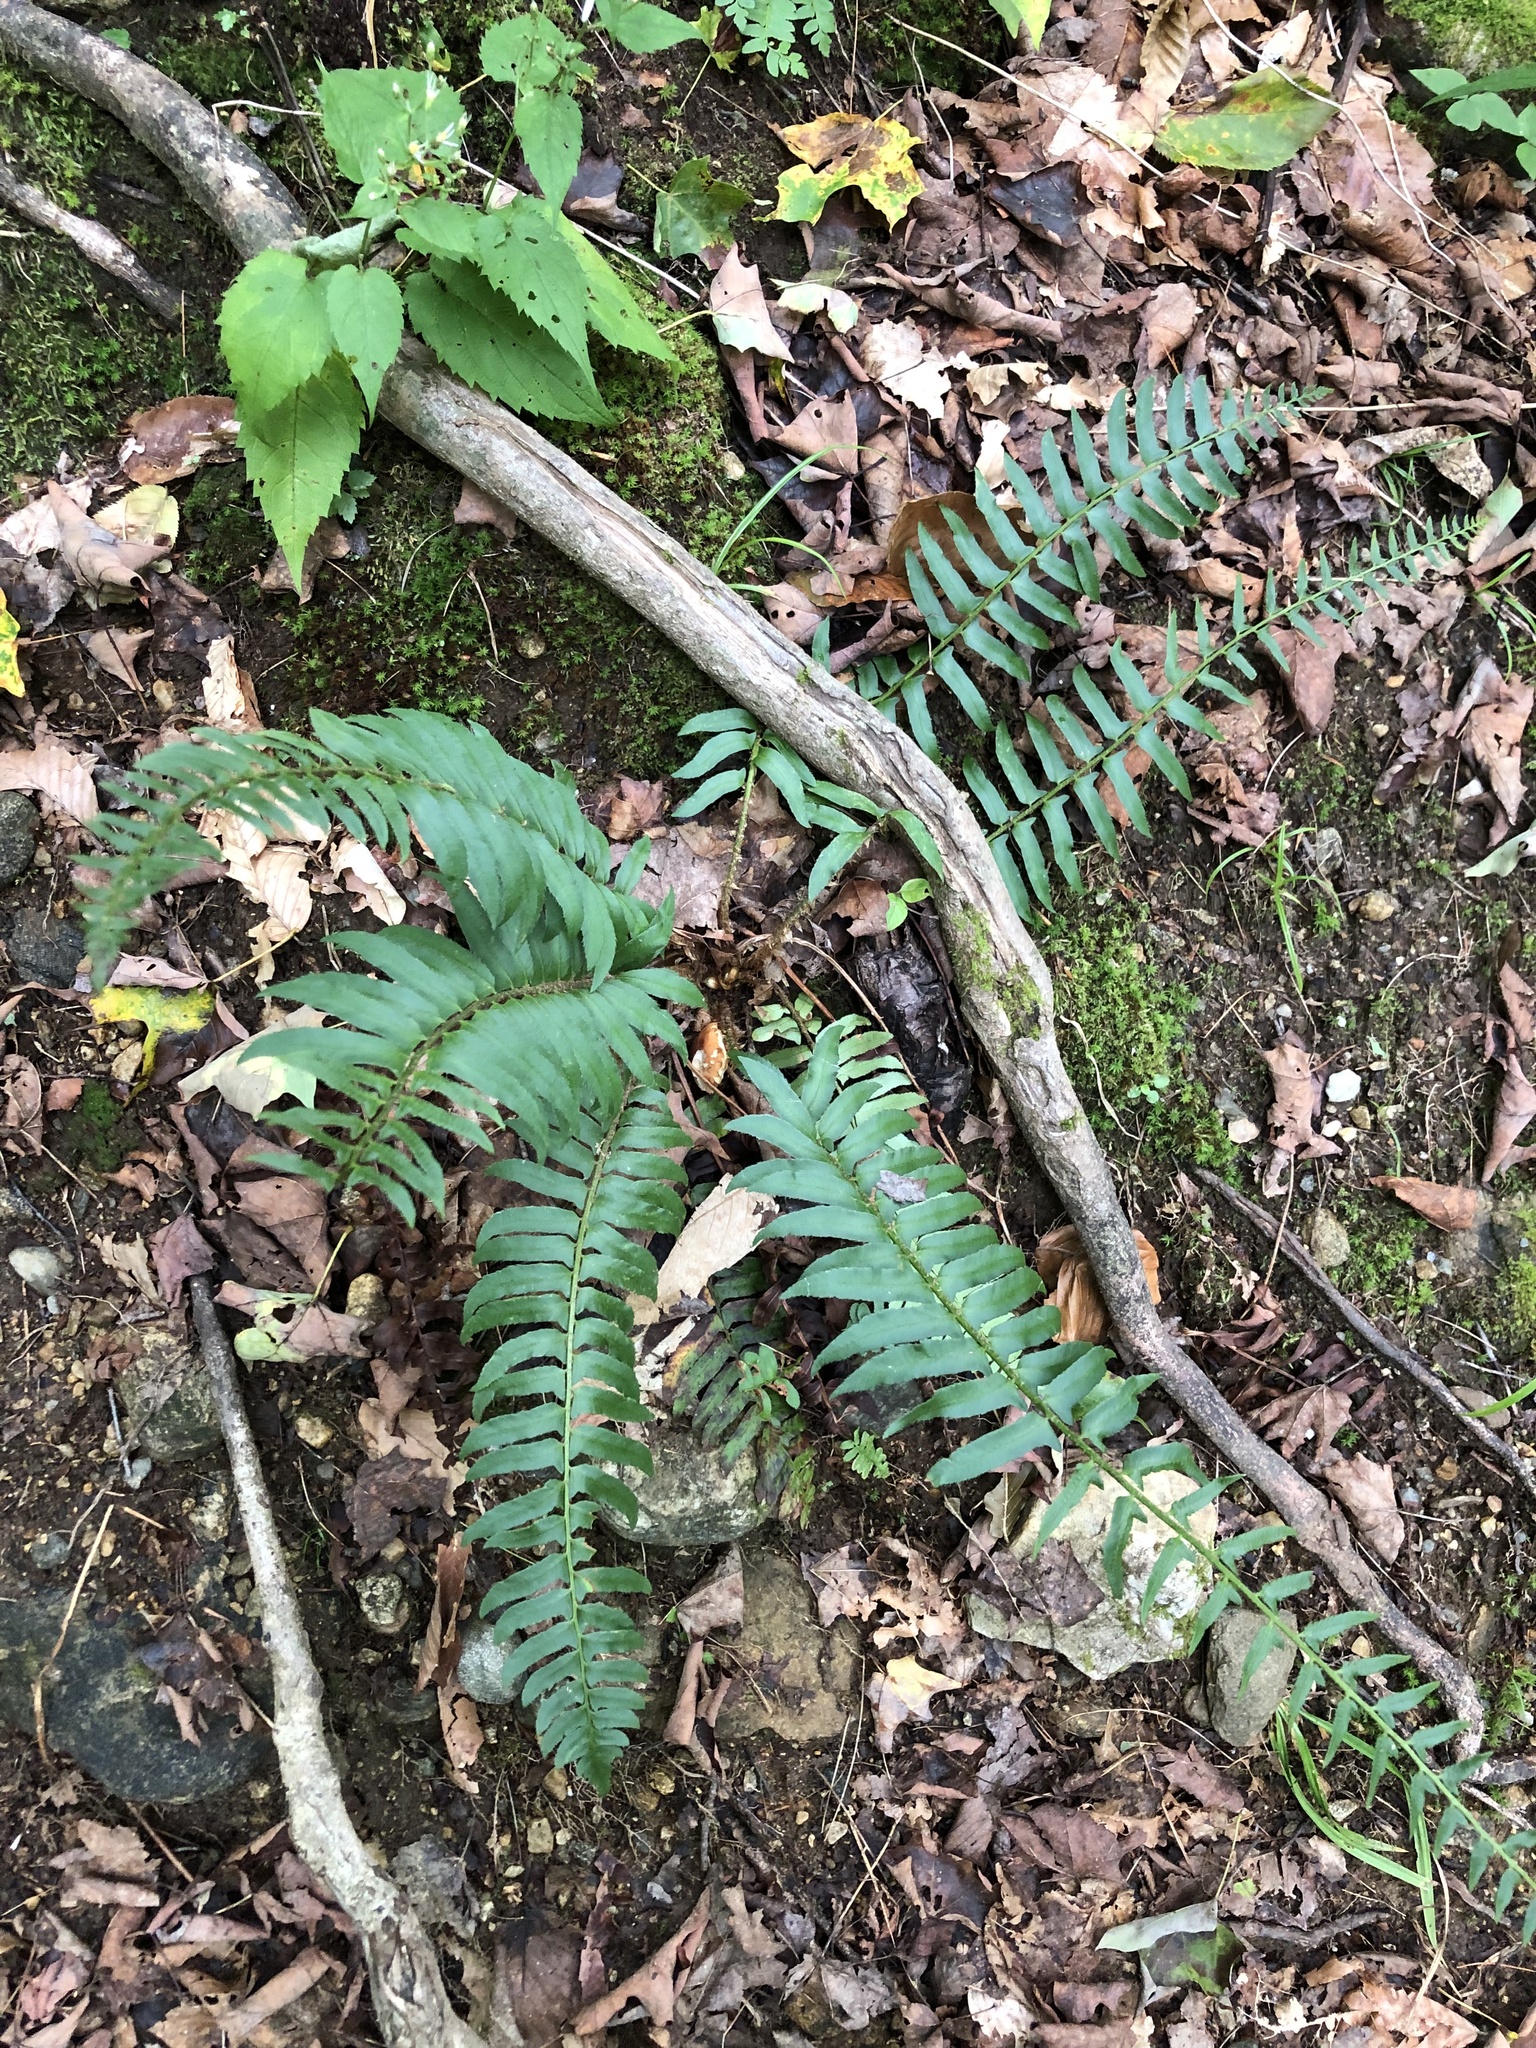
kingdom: Plantae
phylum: Tracheophyta
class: Polypodiopsida
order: Polypodiales
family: Dryopteridaceae
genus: Polystichum
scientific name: Polystichum acrostichoides
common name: Christmas fern
